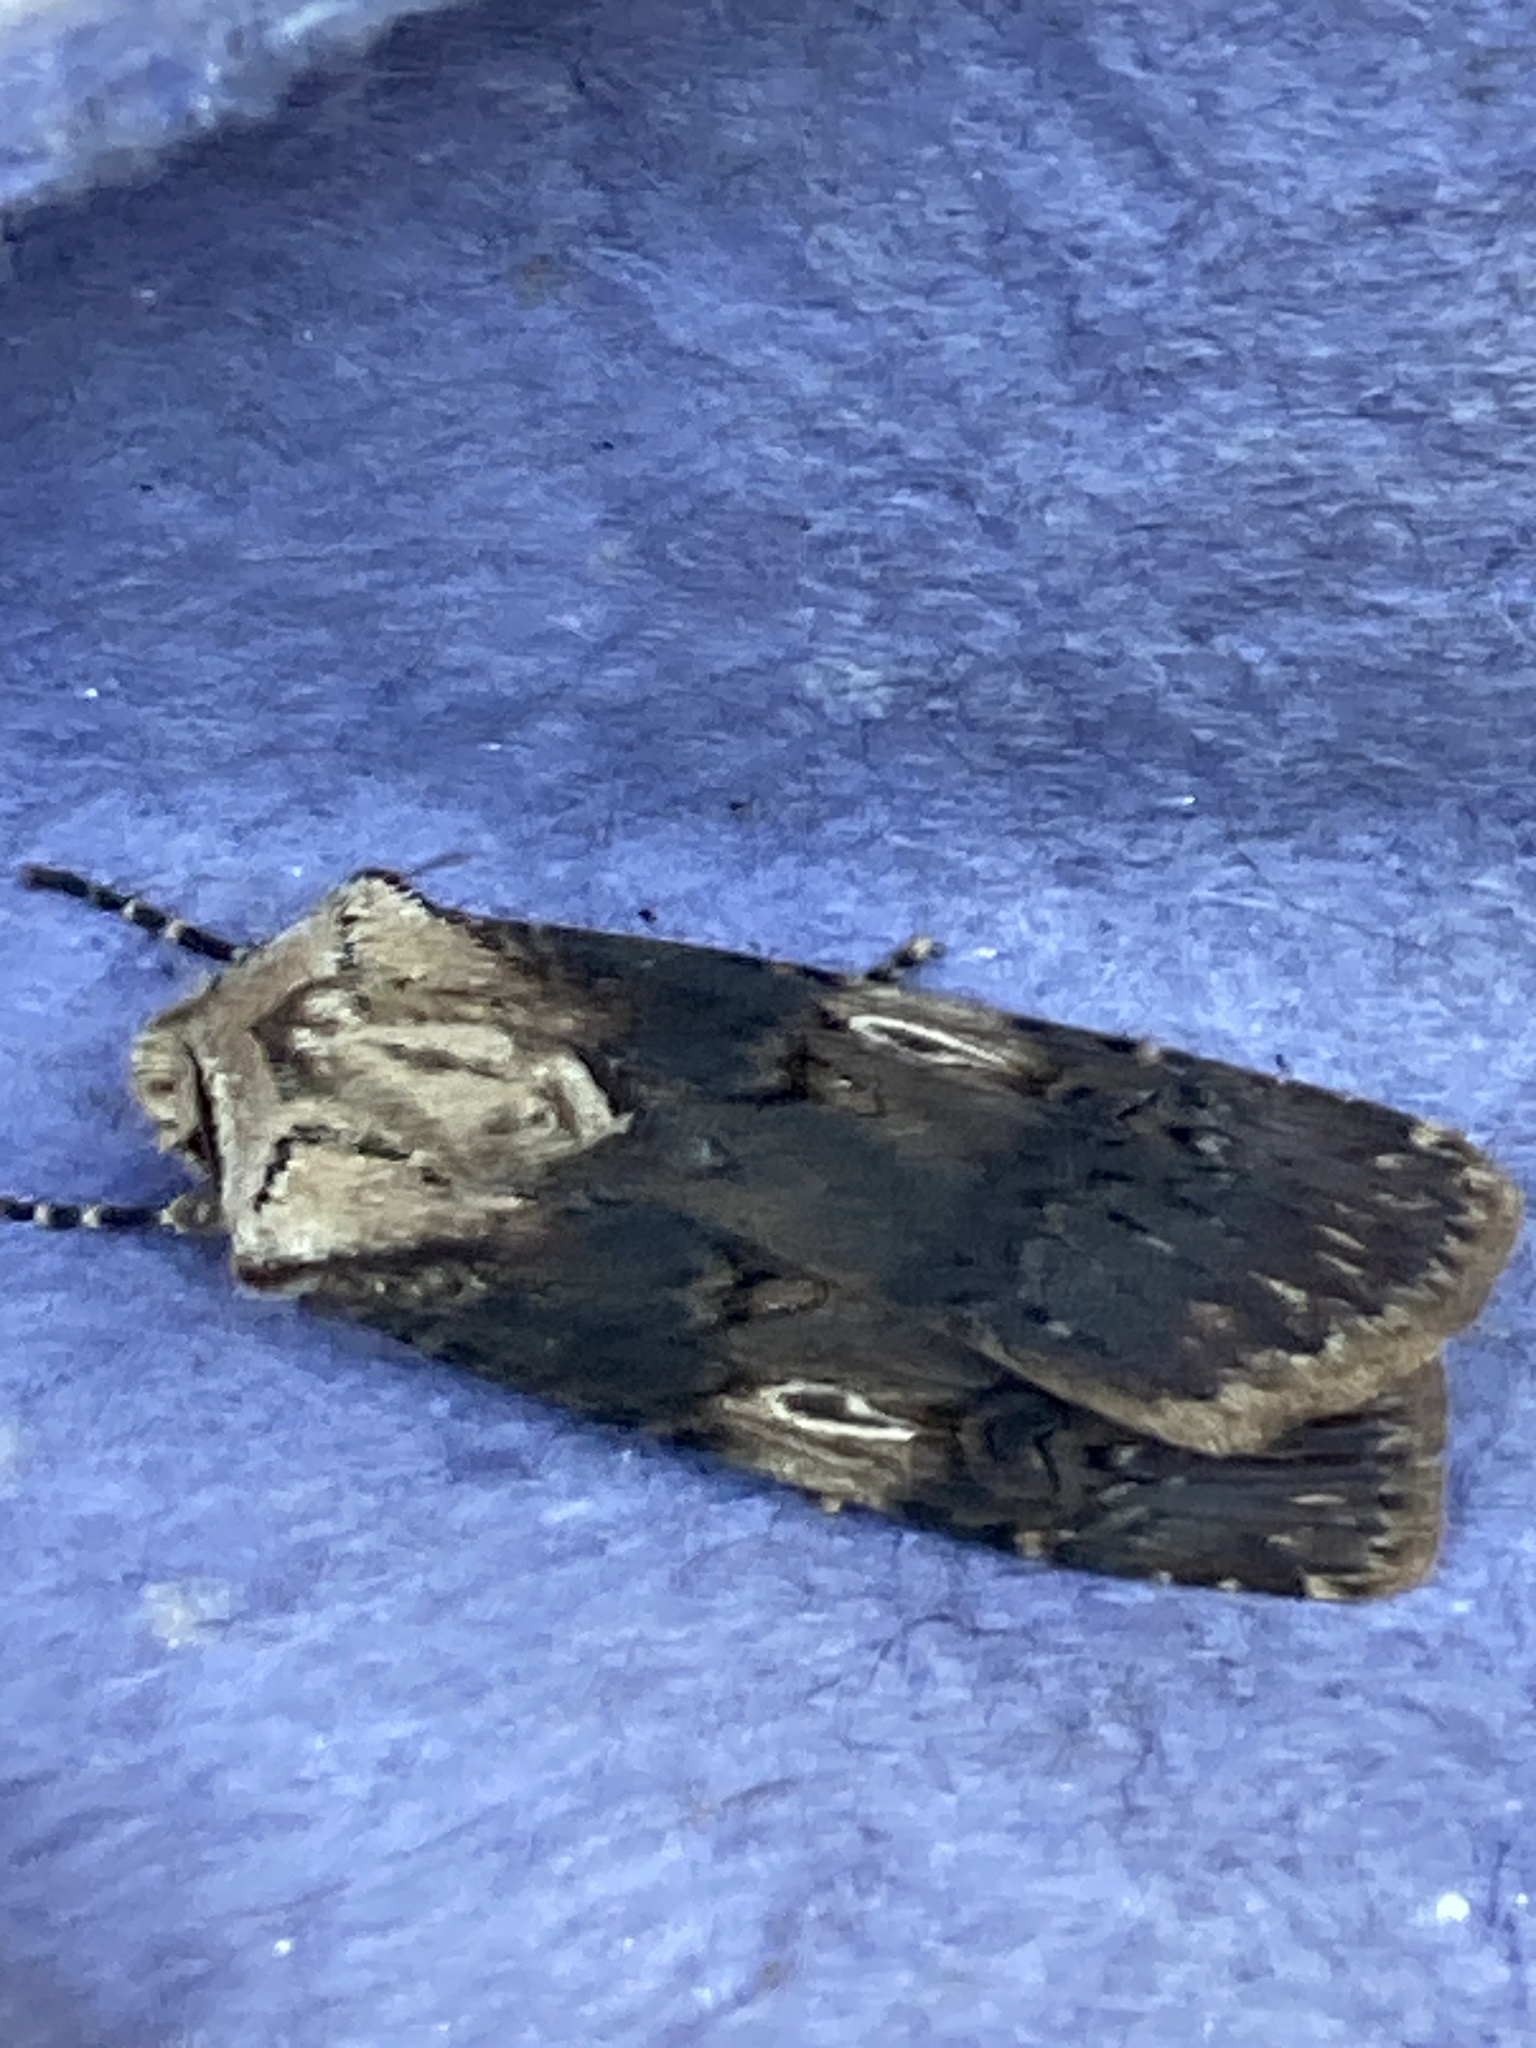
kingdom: Animalia
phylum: Arthropoda
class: Insecta
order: Lepidoptera
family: Noctuidae
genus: Agrotis
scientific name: Agrotis puta
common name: Shuttle-shaped dart
